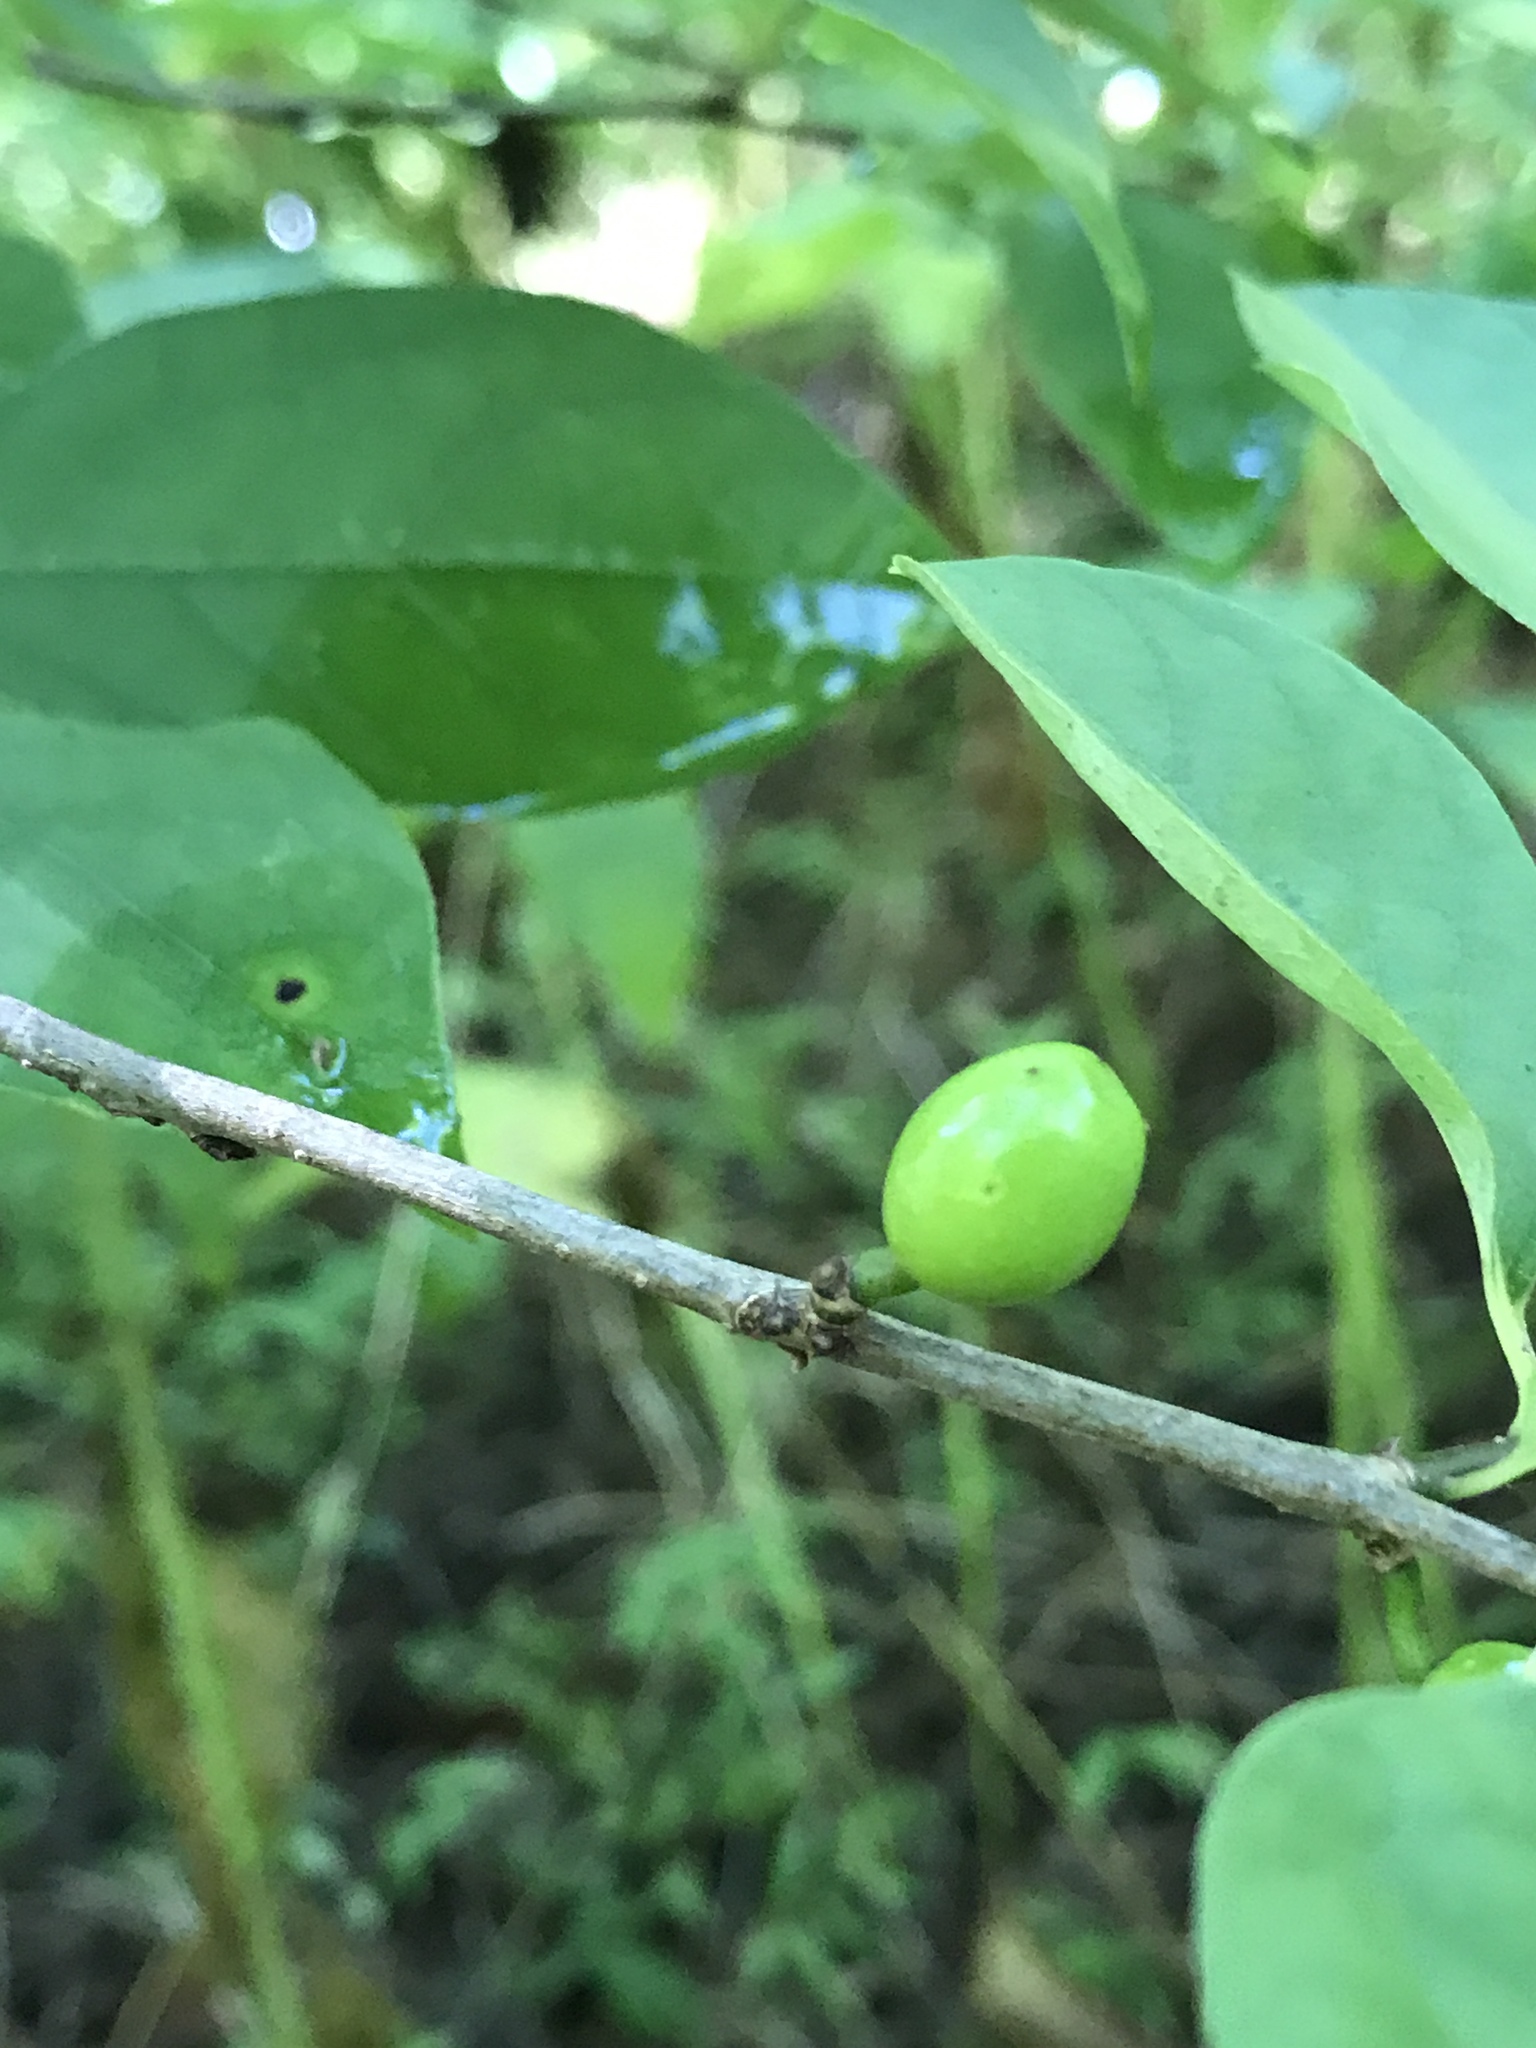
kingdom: Plantae
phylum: Tracheophyta
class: Magnoliopsida
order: Laurales
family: Lauraceae
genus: Lindera
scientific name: Lindera benzoin
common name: Spicebush
